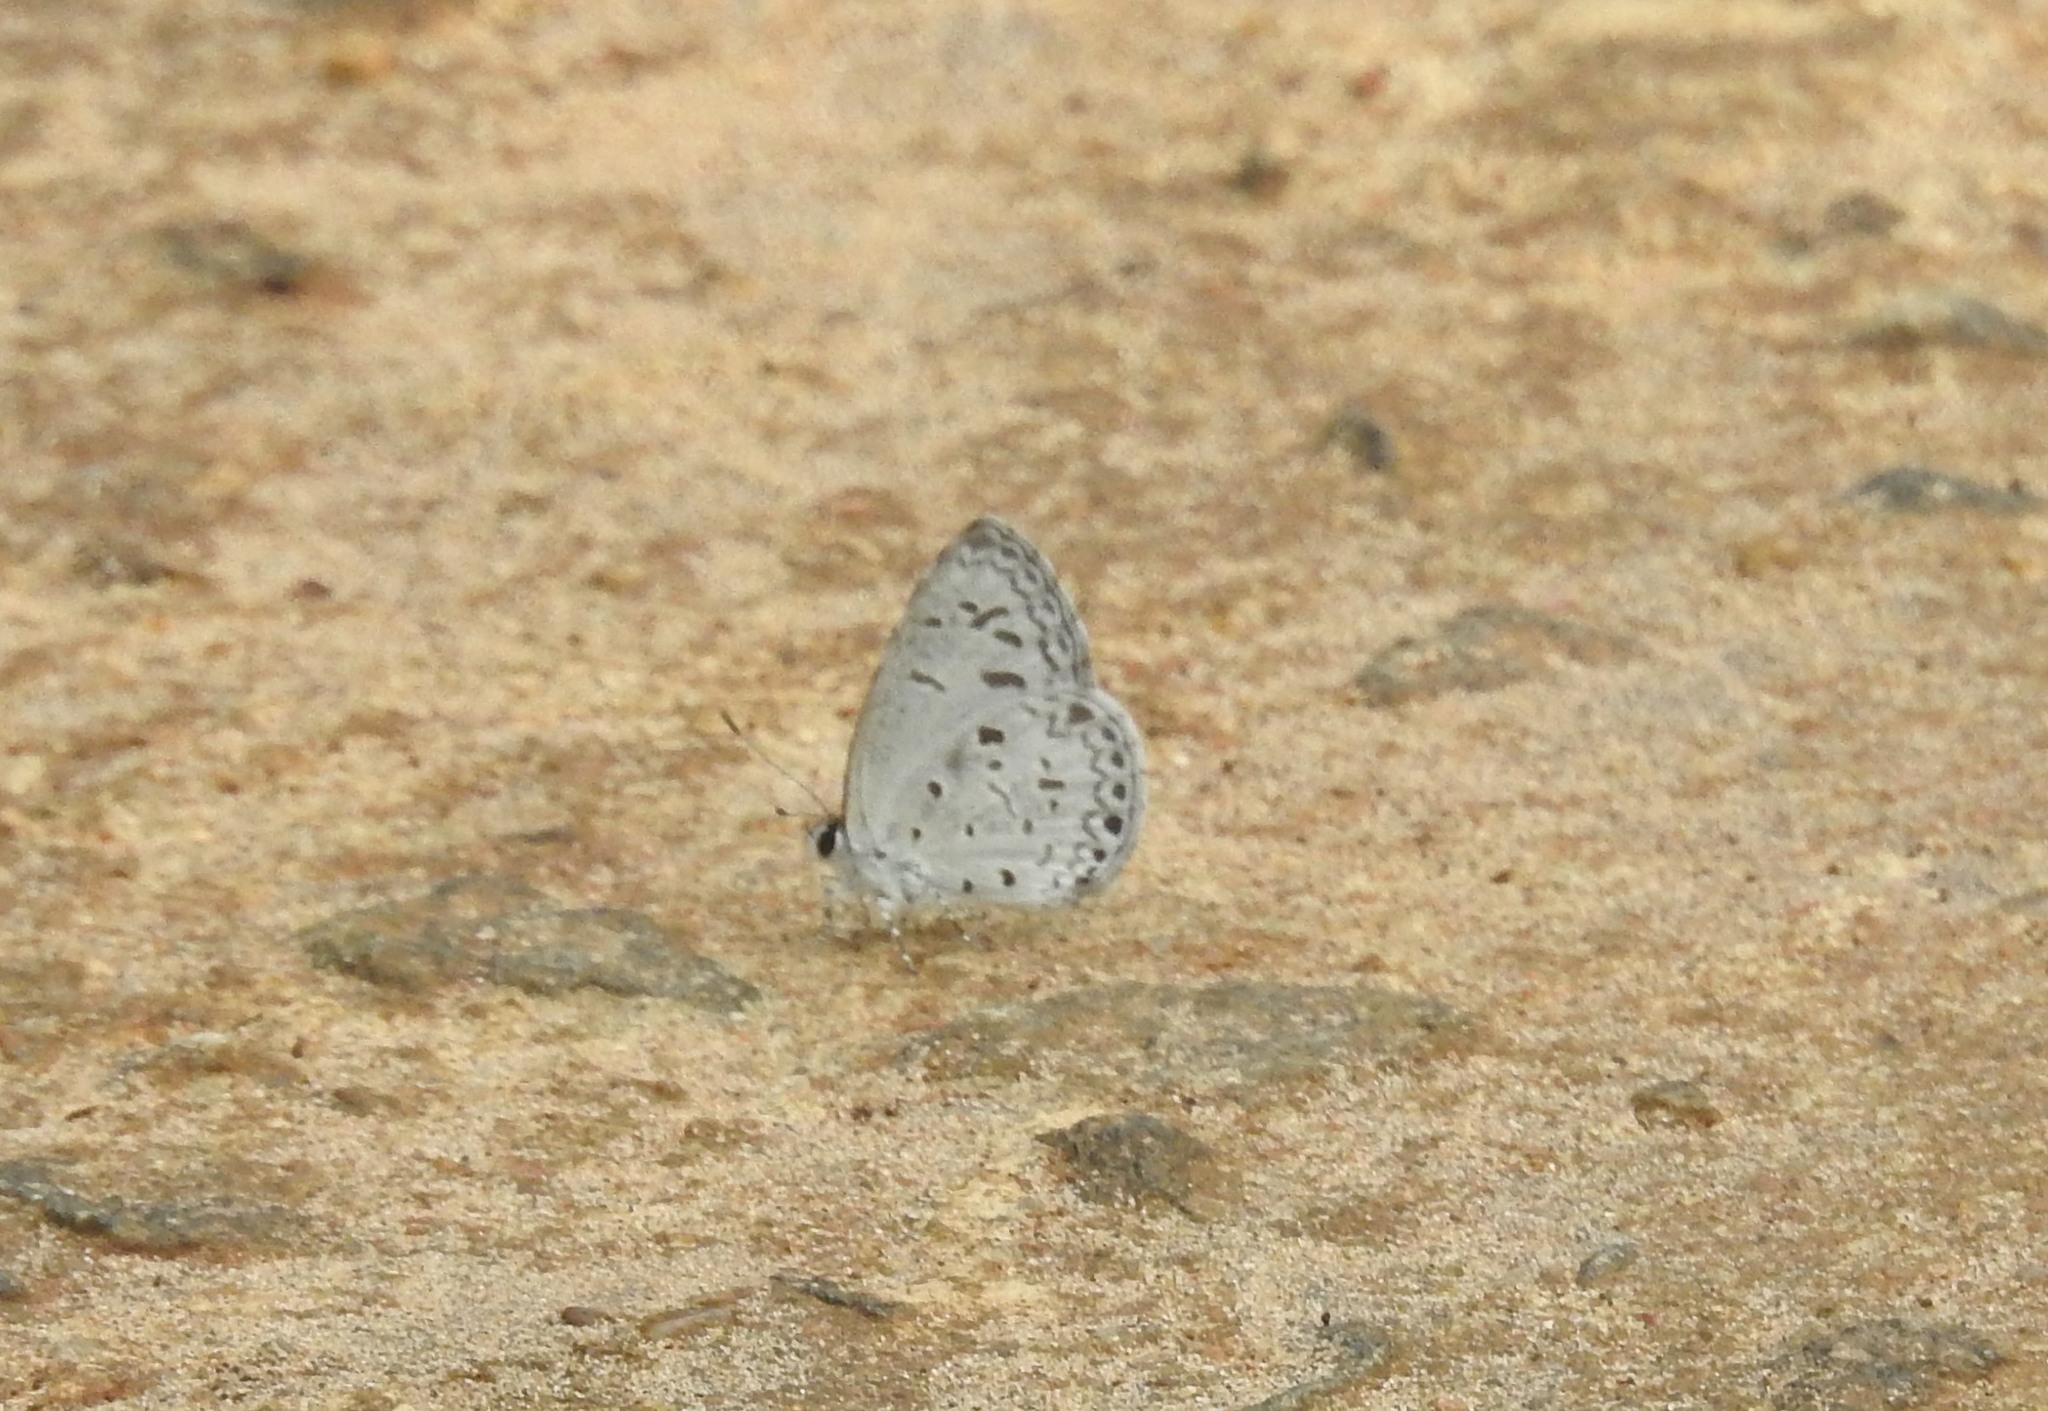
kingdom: Animalia
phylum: Arthropoda
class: Insecta
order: Lepidoptera
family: Lycaenidae
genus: Acytolepis
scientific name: Acytolepis puspa
